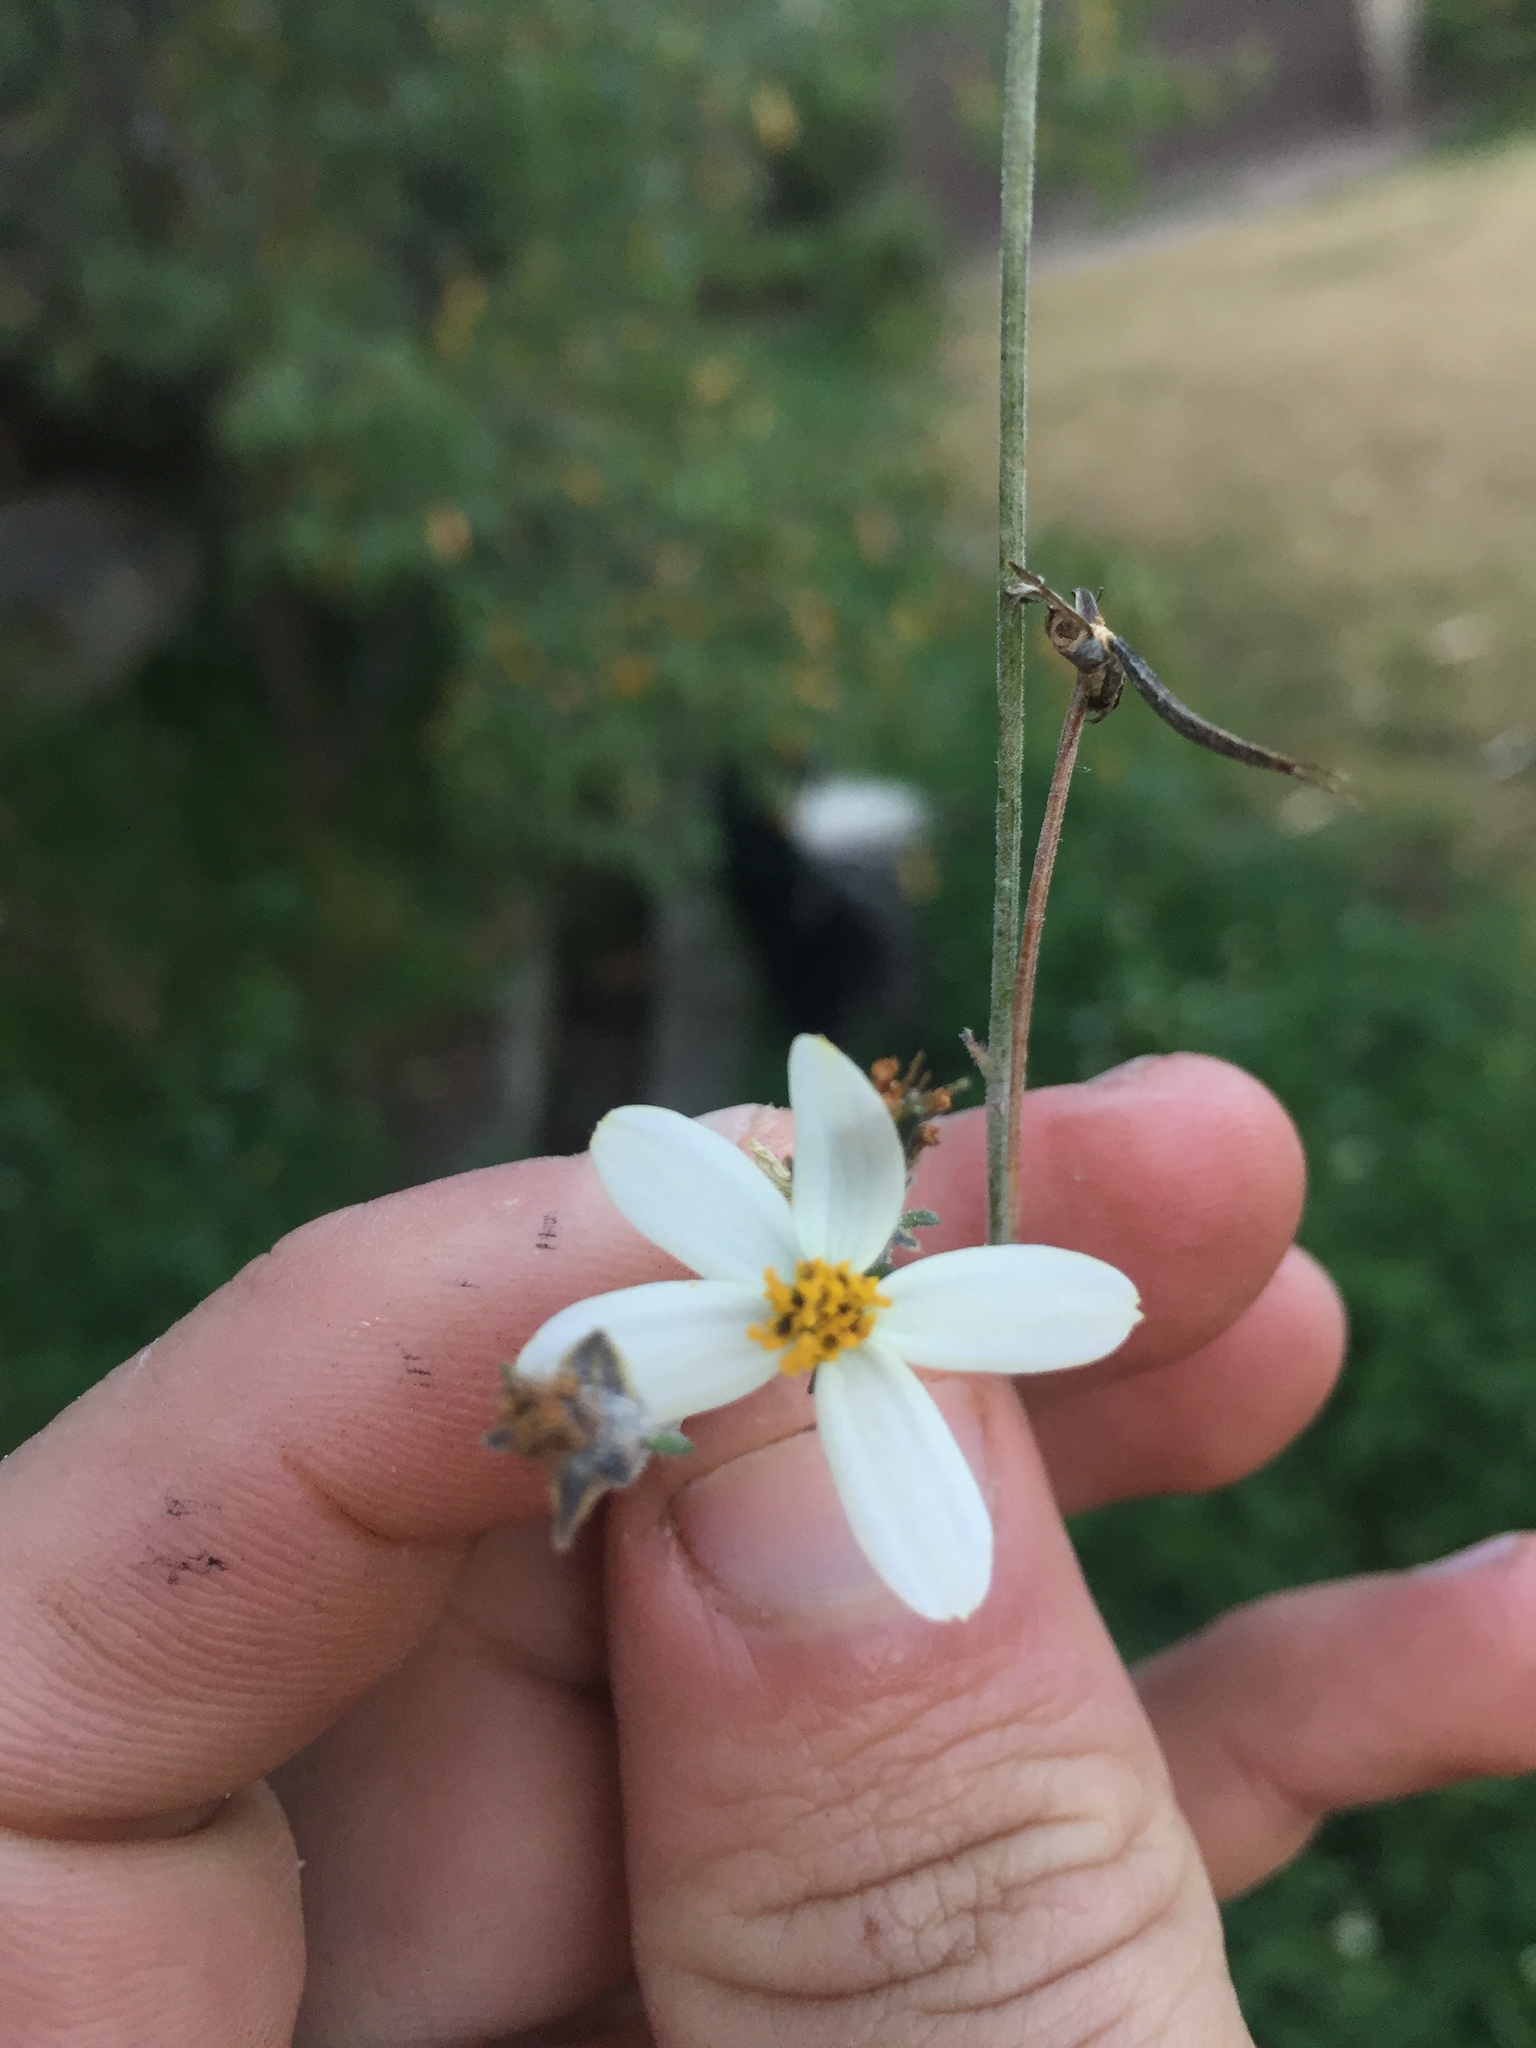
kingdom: Plantae
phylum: Tracheophyta
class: Magnoliopsida
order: Asterales
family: Asteraceae
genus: Bidens
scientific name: Bidens alba
